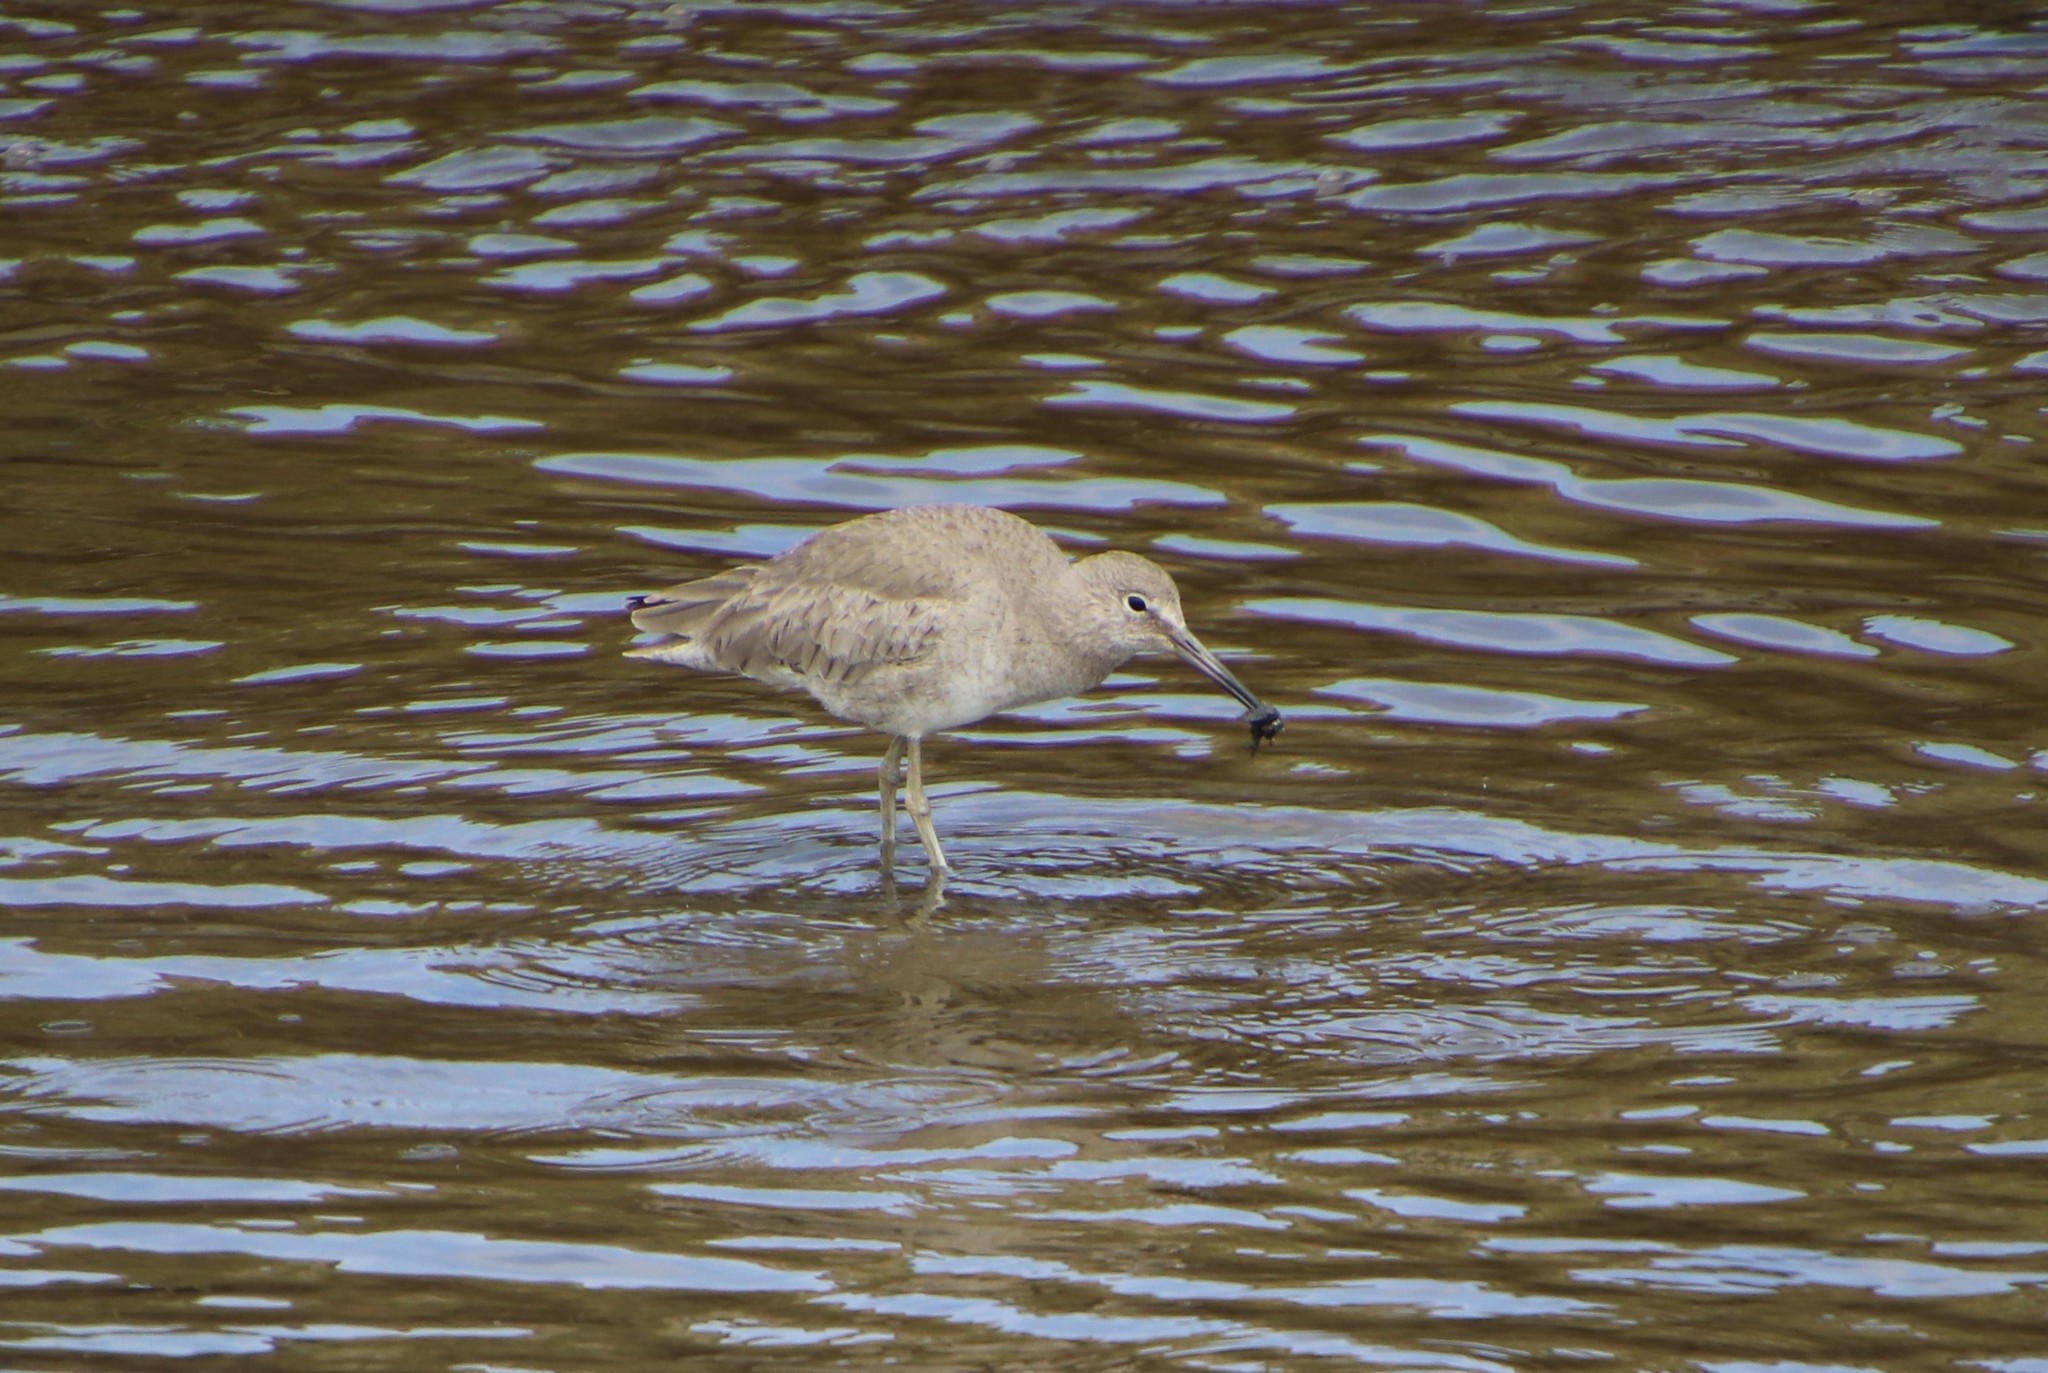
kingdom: Animalia
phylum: Chordata
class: Aves
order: Charadriiformes
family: Scolopacidae
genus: Tringa
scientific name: Tringa semipalmata
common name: Willet
